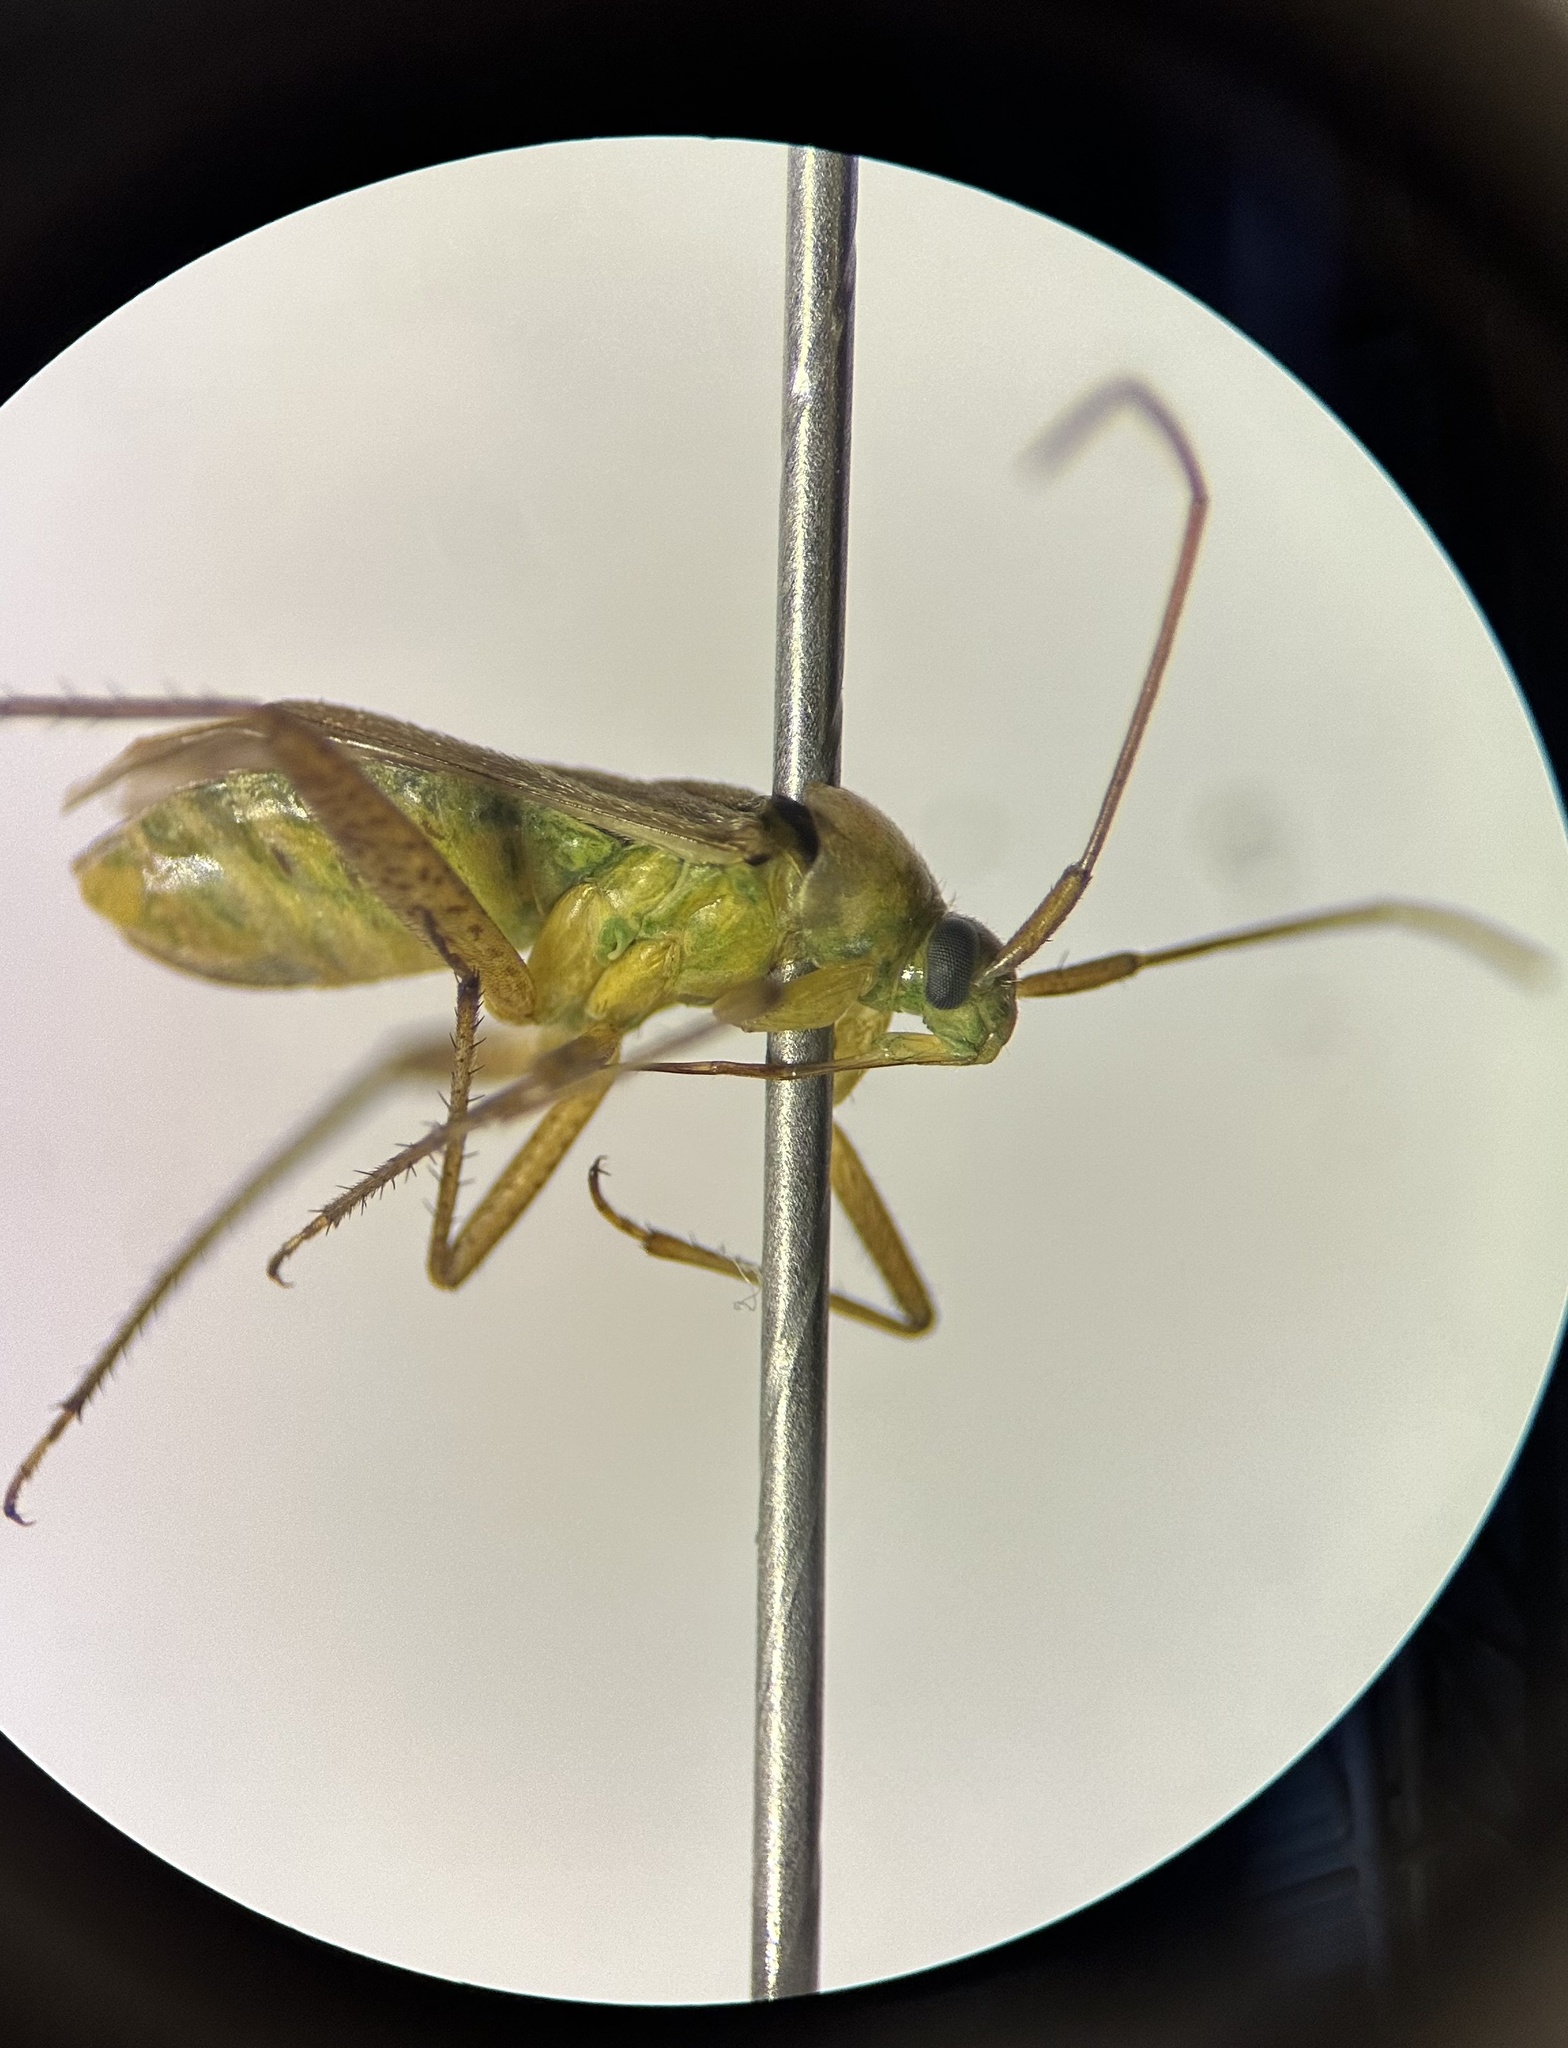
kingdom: Animalia
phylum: Arthropoda
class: Insecta
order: Hemiptera
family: Miridae
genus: Adelphocoris
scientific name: Adelphocoris lineolatus
